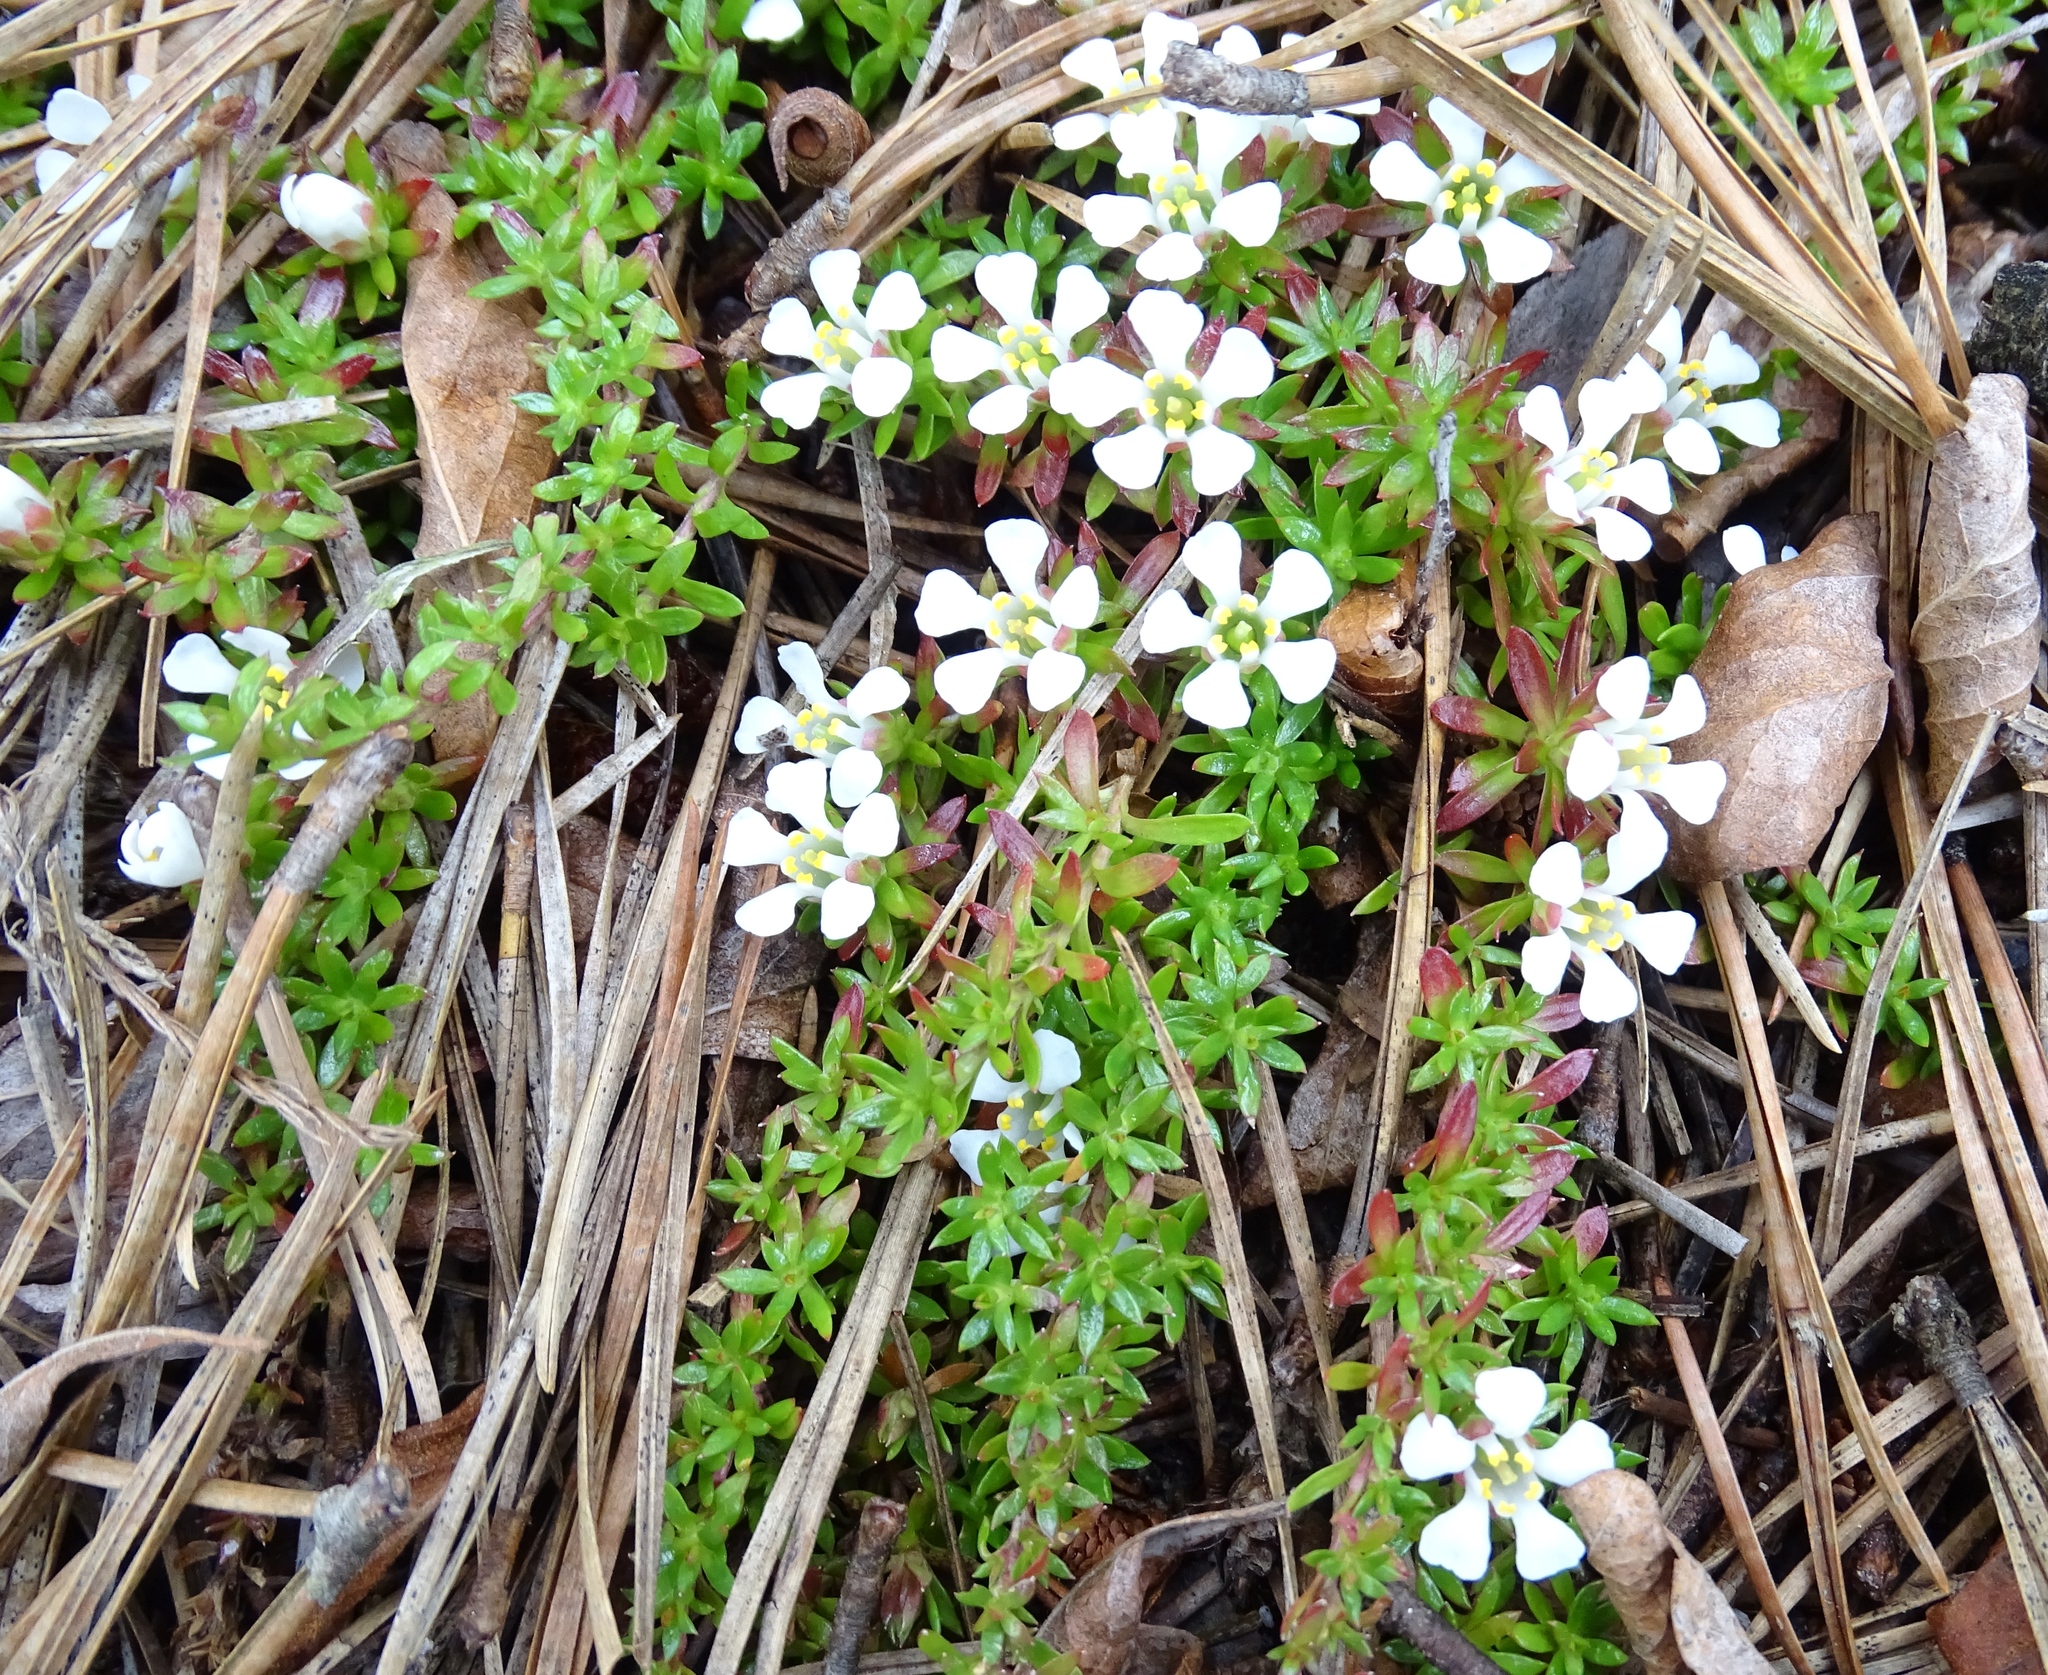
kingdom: Plantae
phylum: Tracheophyta
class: Magnoliopsida
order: Ericales
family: Diapensiaceae
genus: Pyxidanthera
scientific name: Pyxidanthera barbulata
